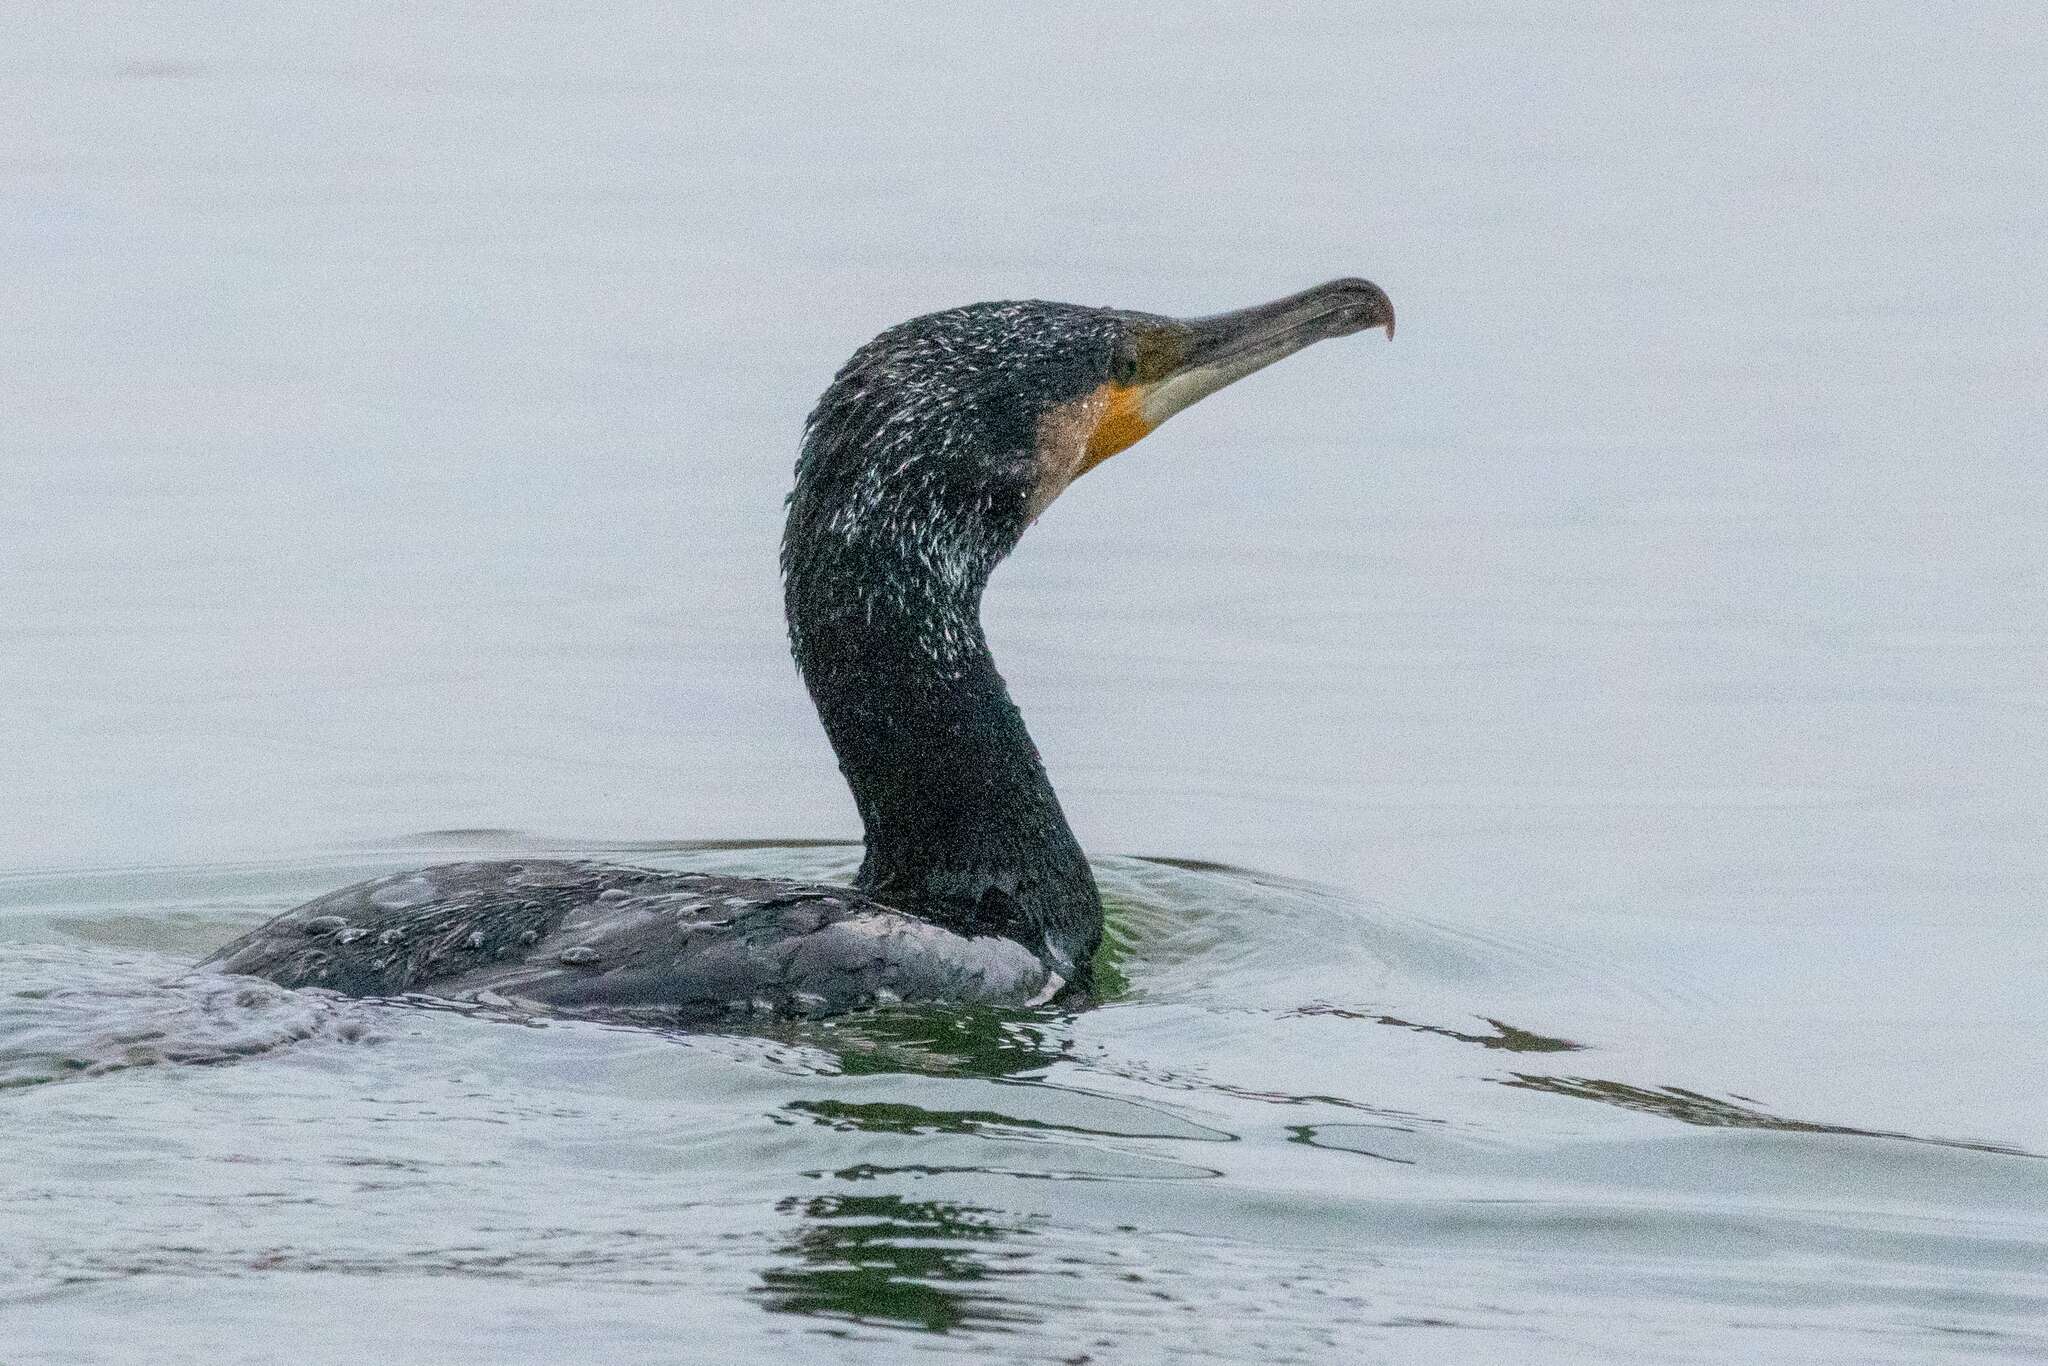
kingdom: Animalia
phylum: Chordata
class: Aves
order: Suliformes
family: Phalacrocoracidae
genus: Phalacrocorax
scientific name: Phalacrocorax carbo
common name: Great cormorant
